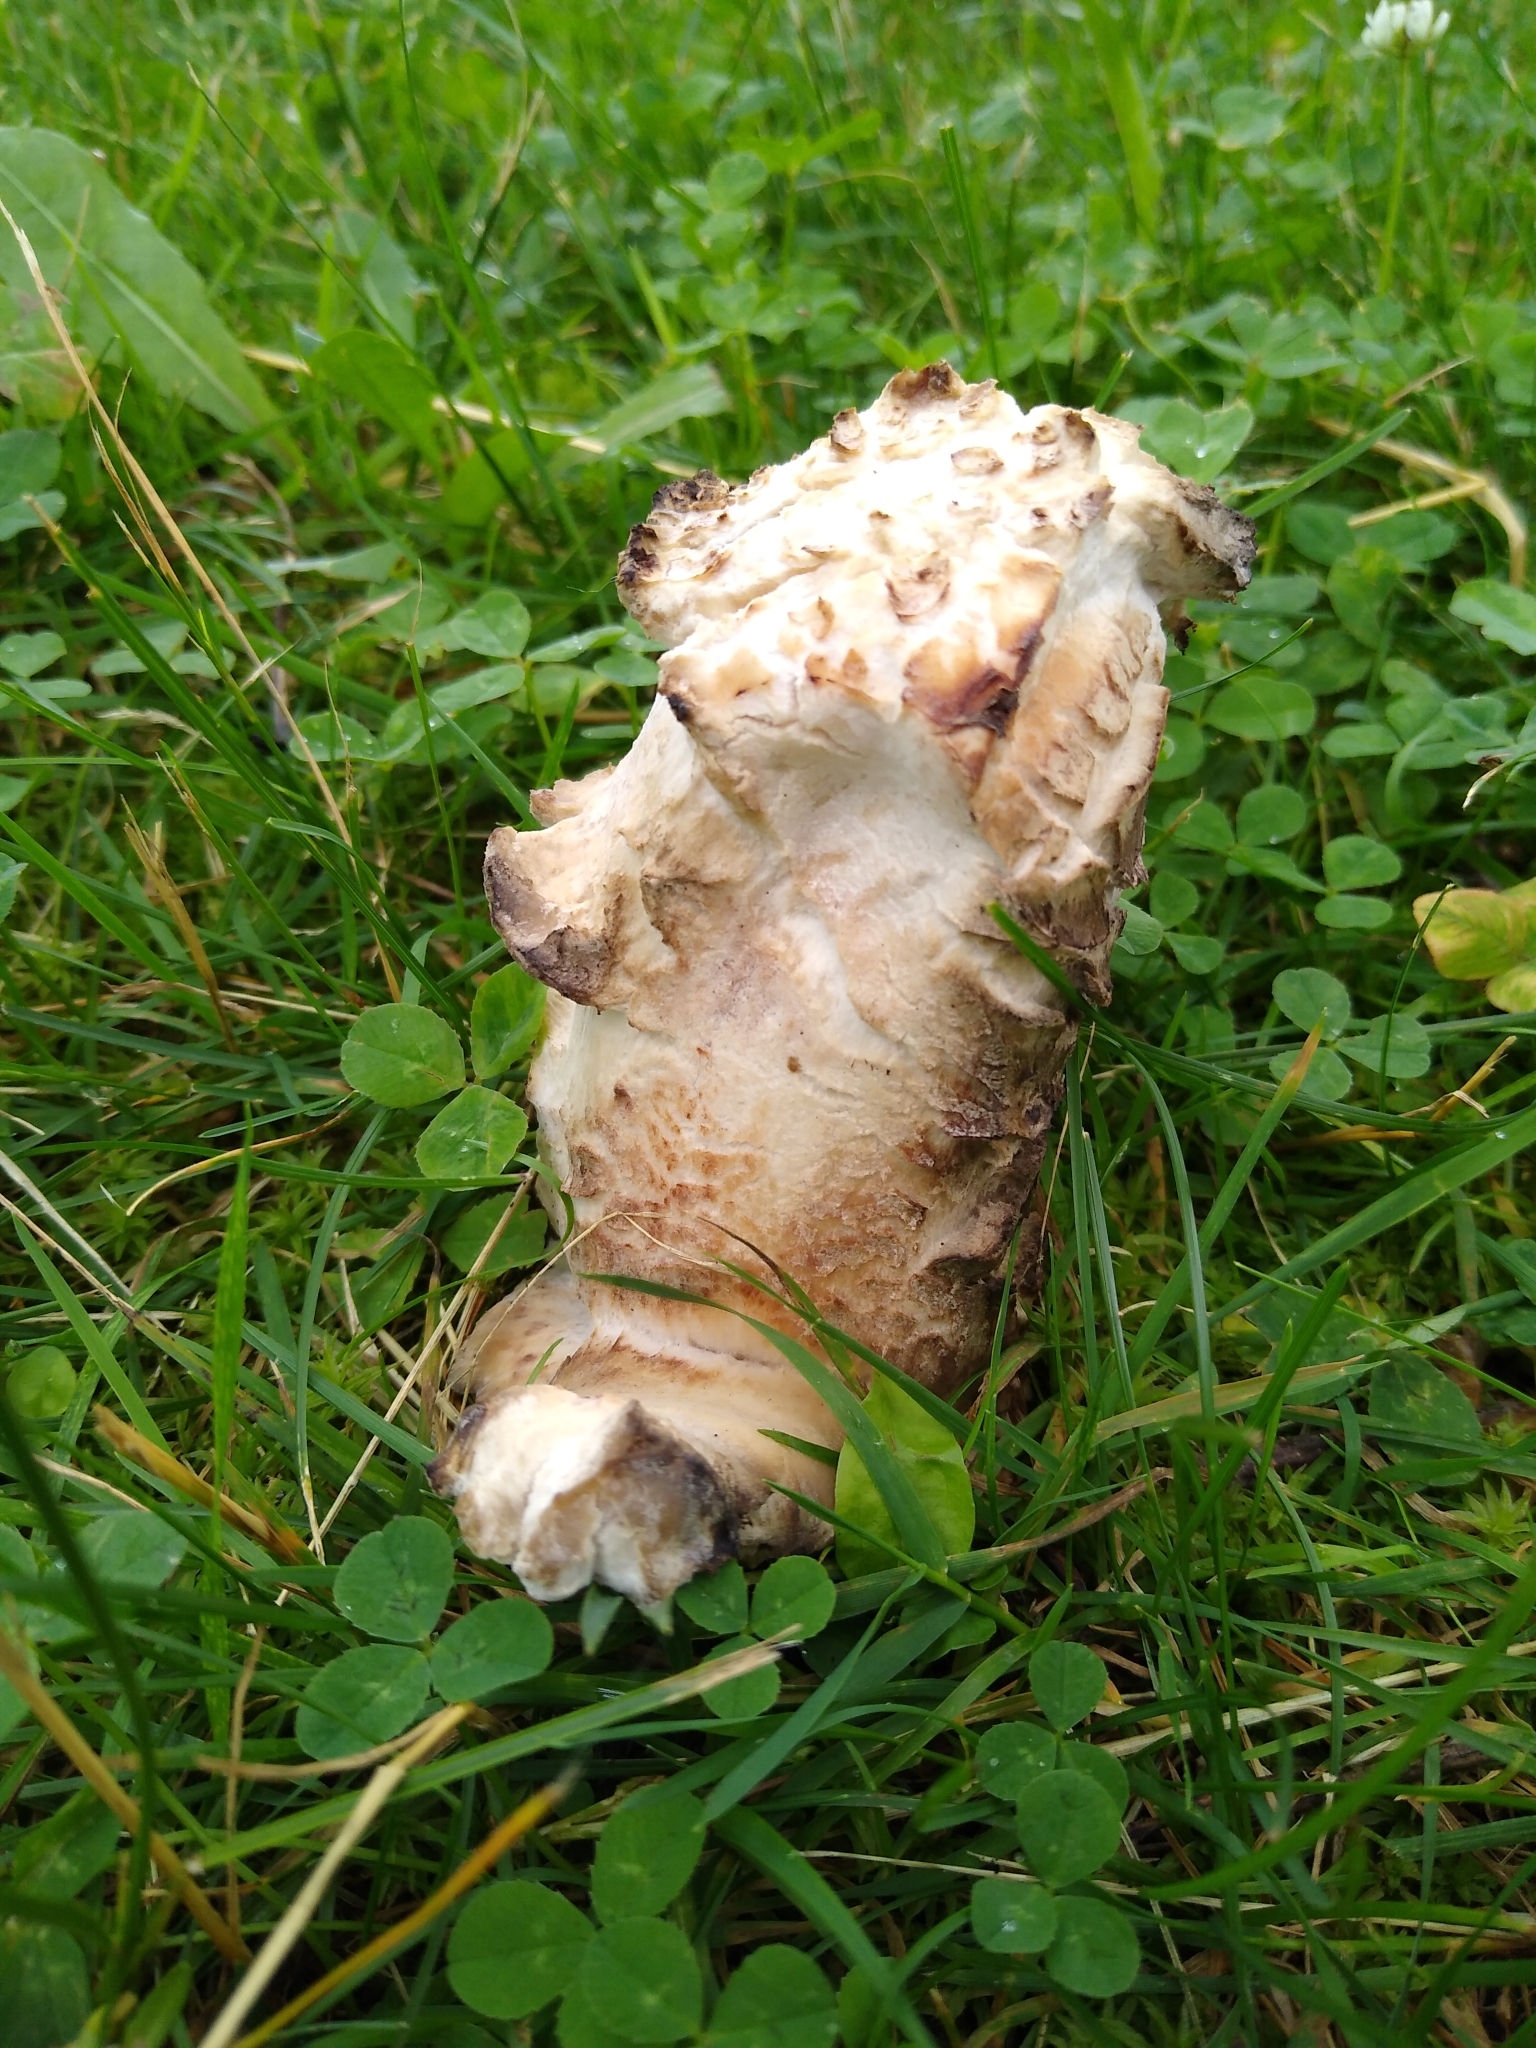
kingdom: Fungi
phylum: Ascomycota
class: Sordariomycetes
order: Hypocreales
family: Hypocreaceae
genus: Hypomyces
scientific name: Hypomyces hyalinus
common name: Amanita mold
